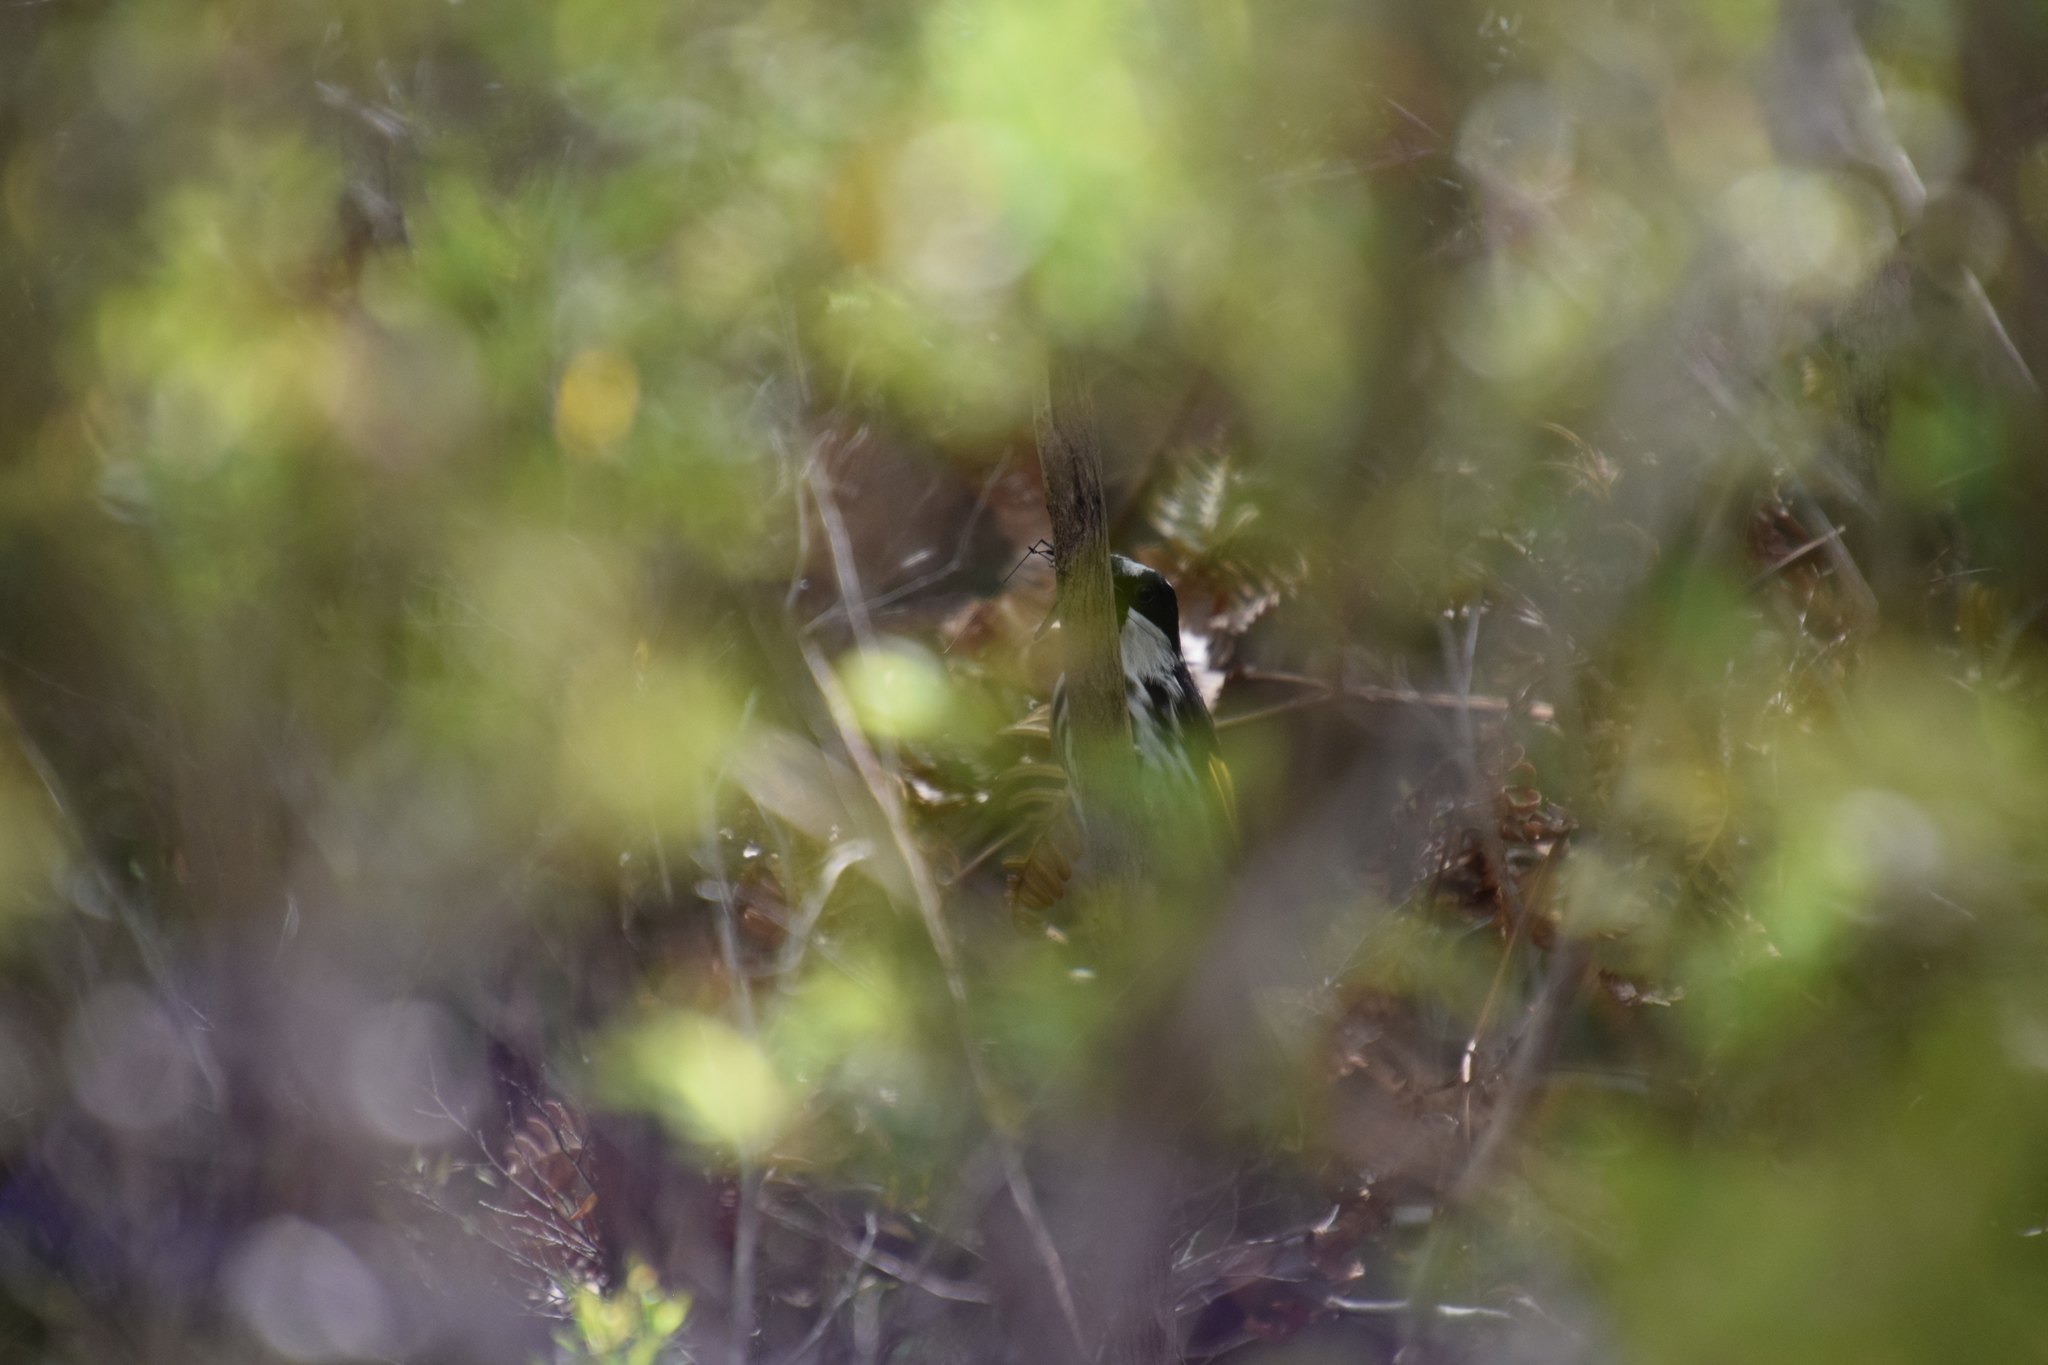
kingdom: Animalia
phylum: Chordata
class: Aves
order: Passeriformes
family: Meliphagidae
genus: Phylidonyris
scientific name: Phylidonyris niger
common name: White-cheeked honeyeater
